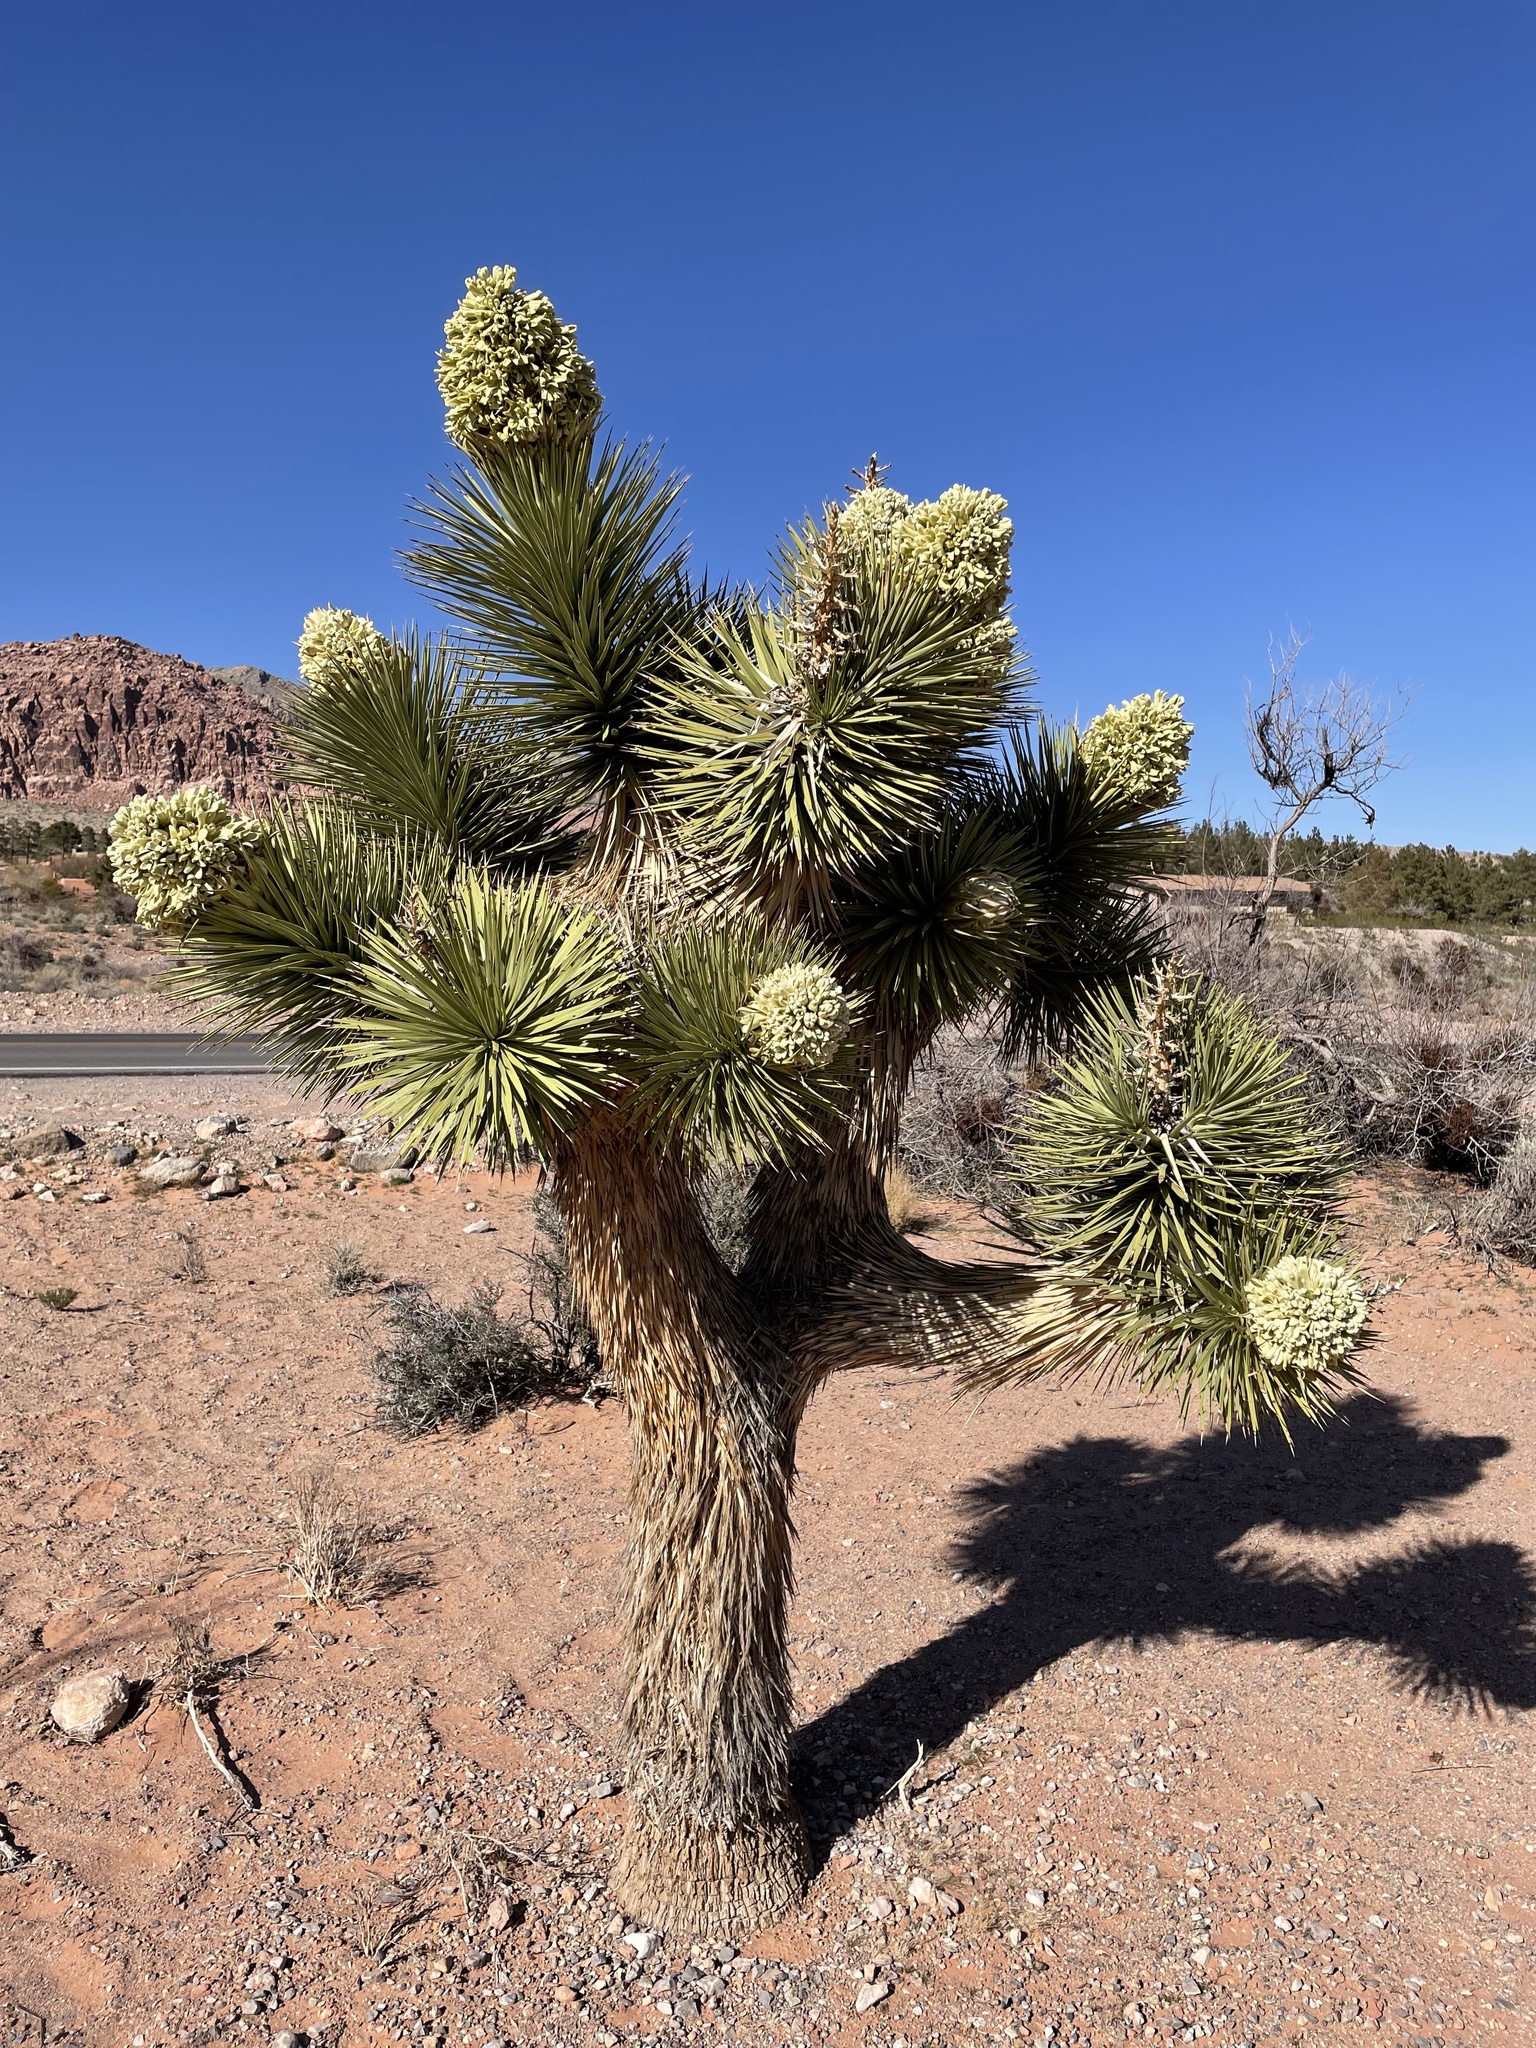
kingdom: Plantae
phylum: Tracheophyta
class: Liliopsida
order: Asparagales
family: Asparagaceae
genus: Yucca
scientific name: Yucca brevifolia
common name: Joshua tree
